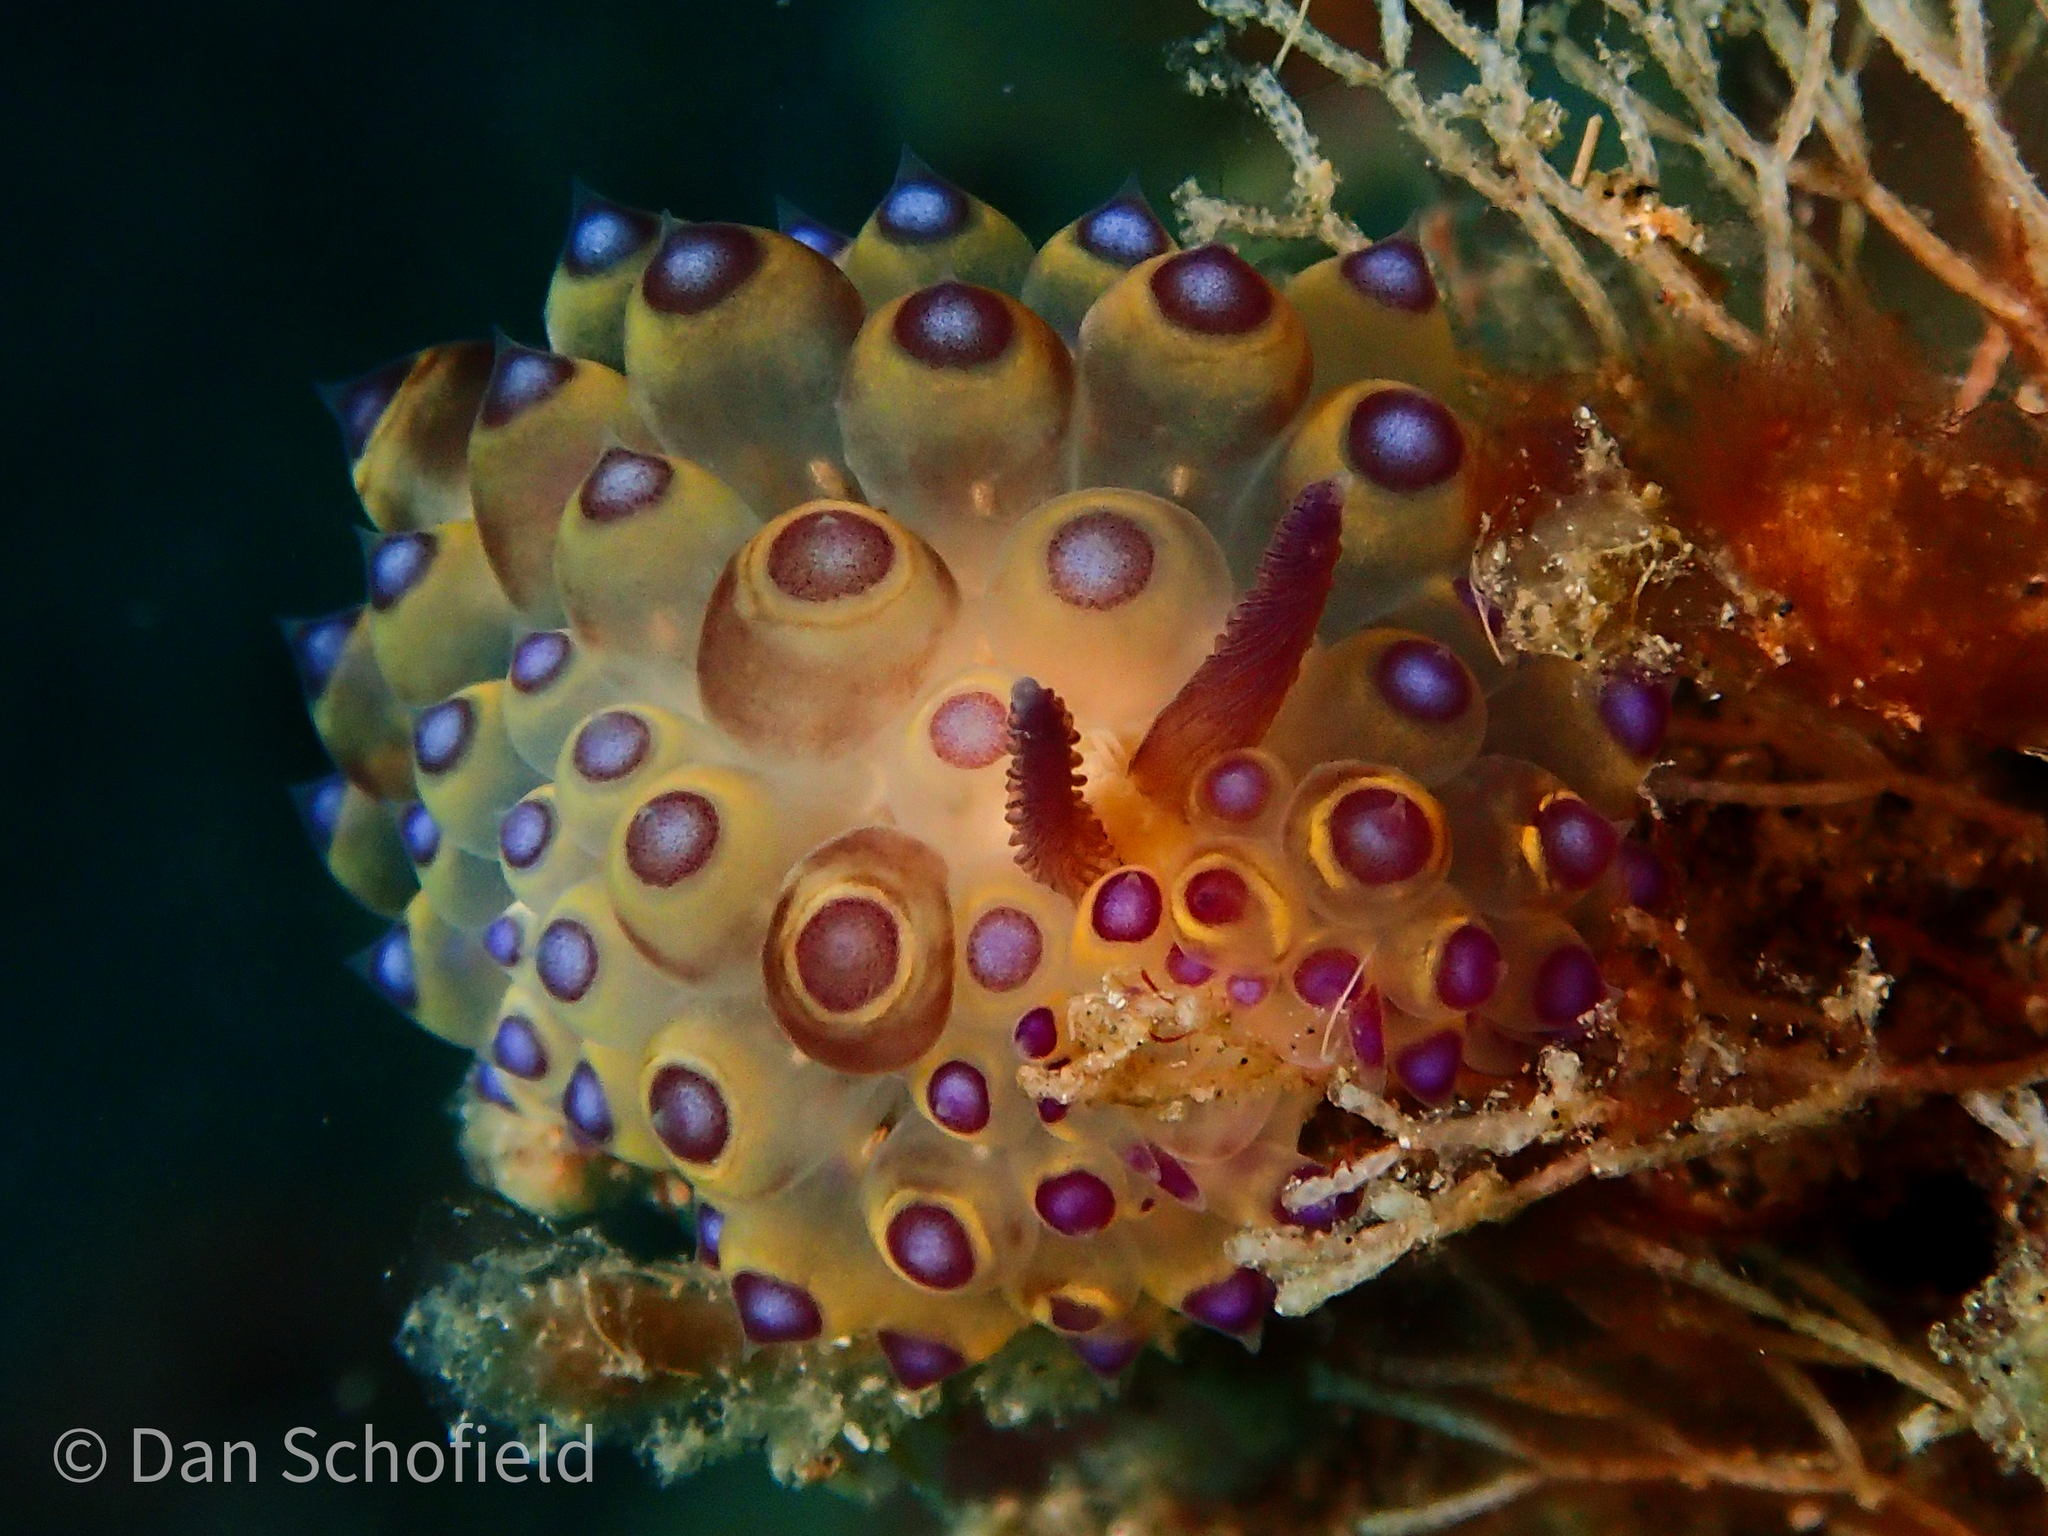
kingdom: Animalia
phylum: Mollusca
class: Gastropoda
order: Nudibranchia
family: Janolidae
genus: Janolus
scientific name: Janolus flavoanulatus
